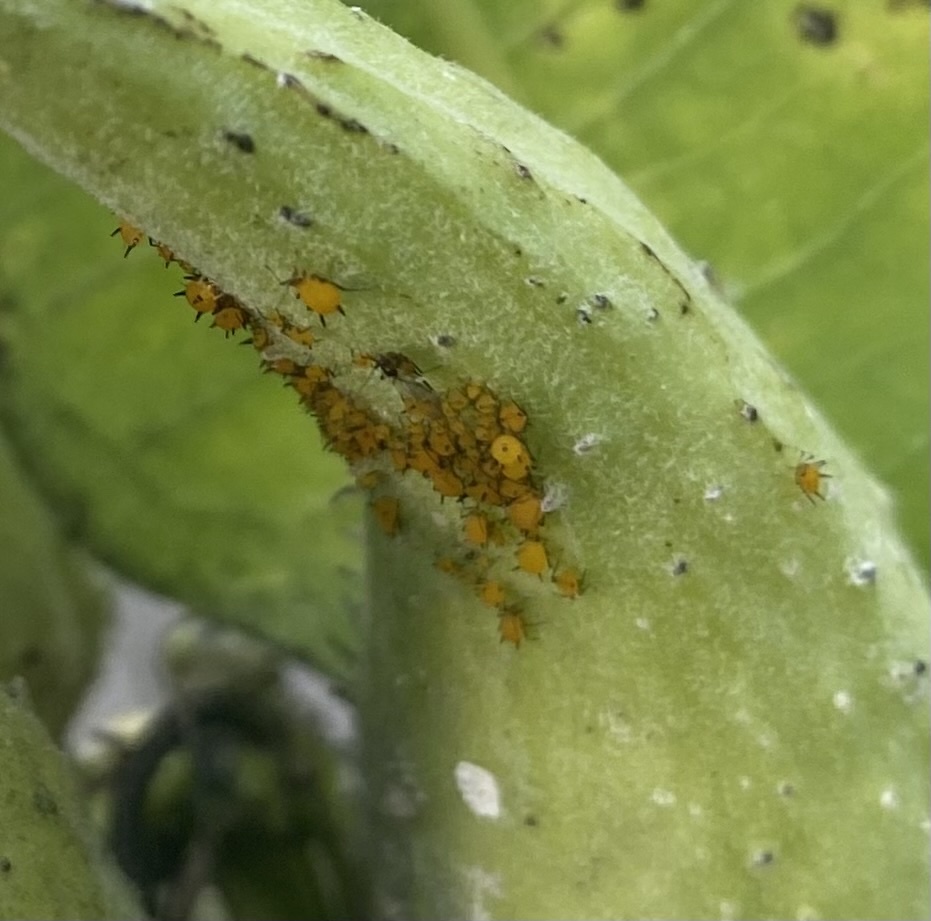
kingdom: Animalia
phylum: Arthropoda
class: Insecta
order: Hemiptera
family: Aphididae
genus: Aphis
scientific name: Aphis nerii
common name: Oleander aphid
